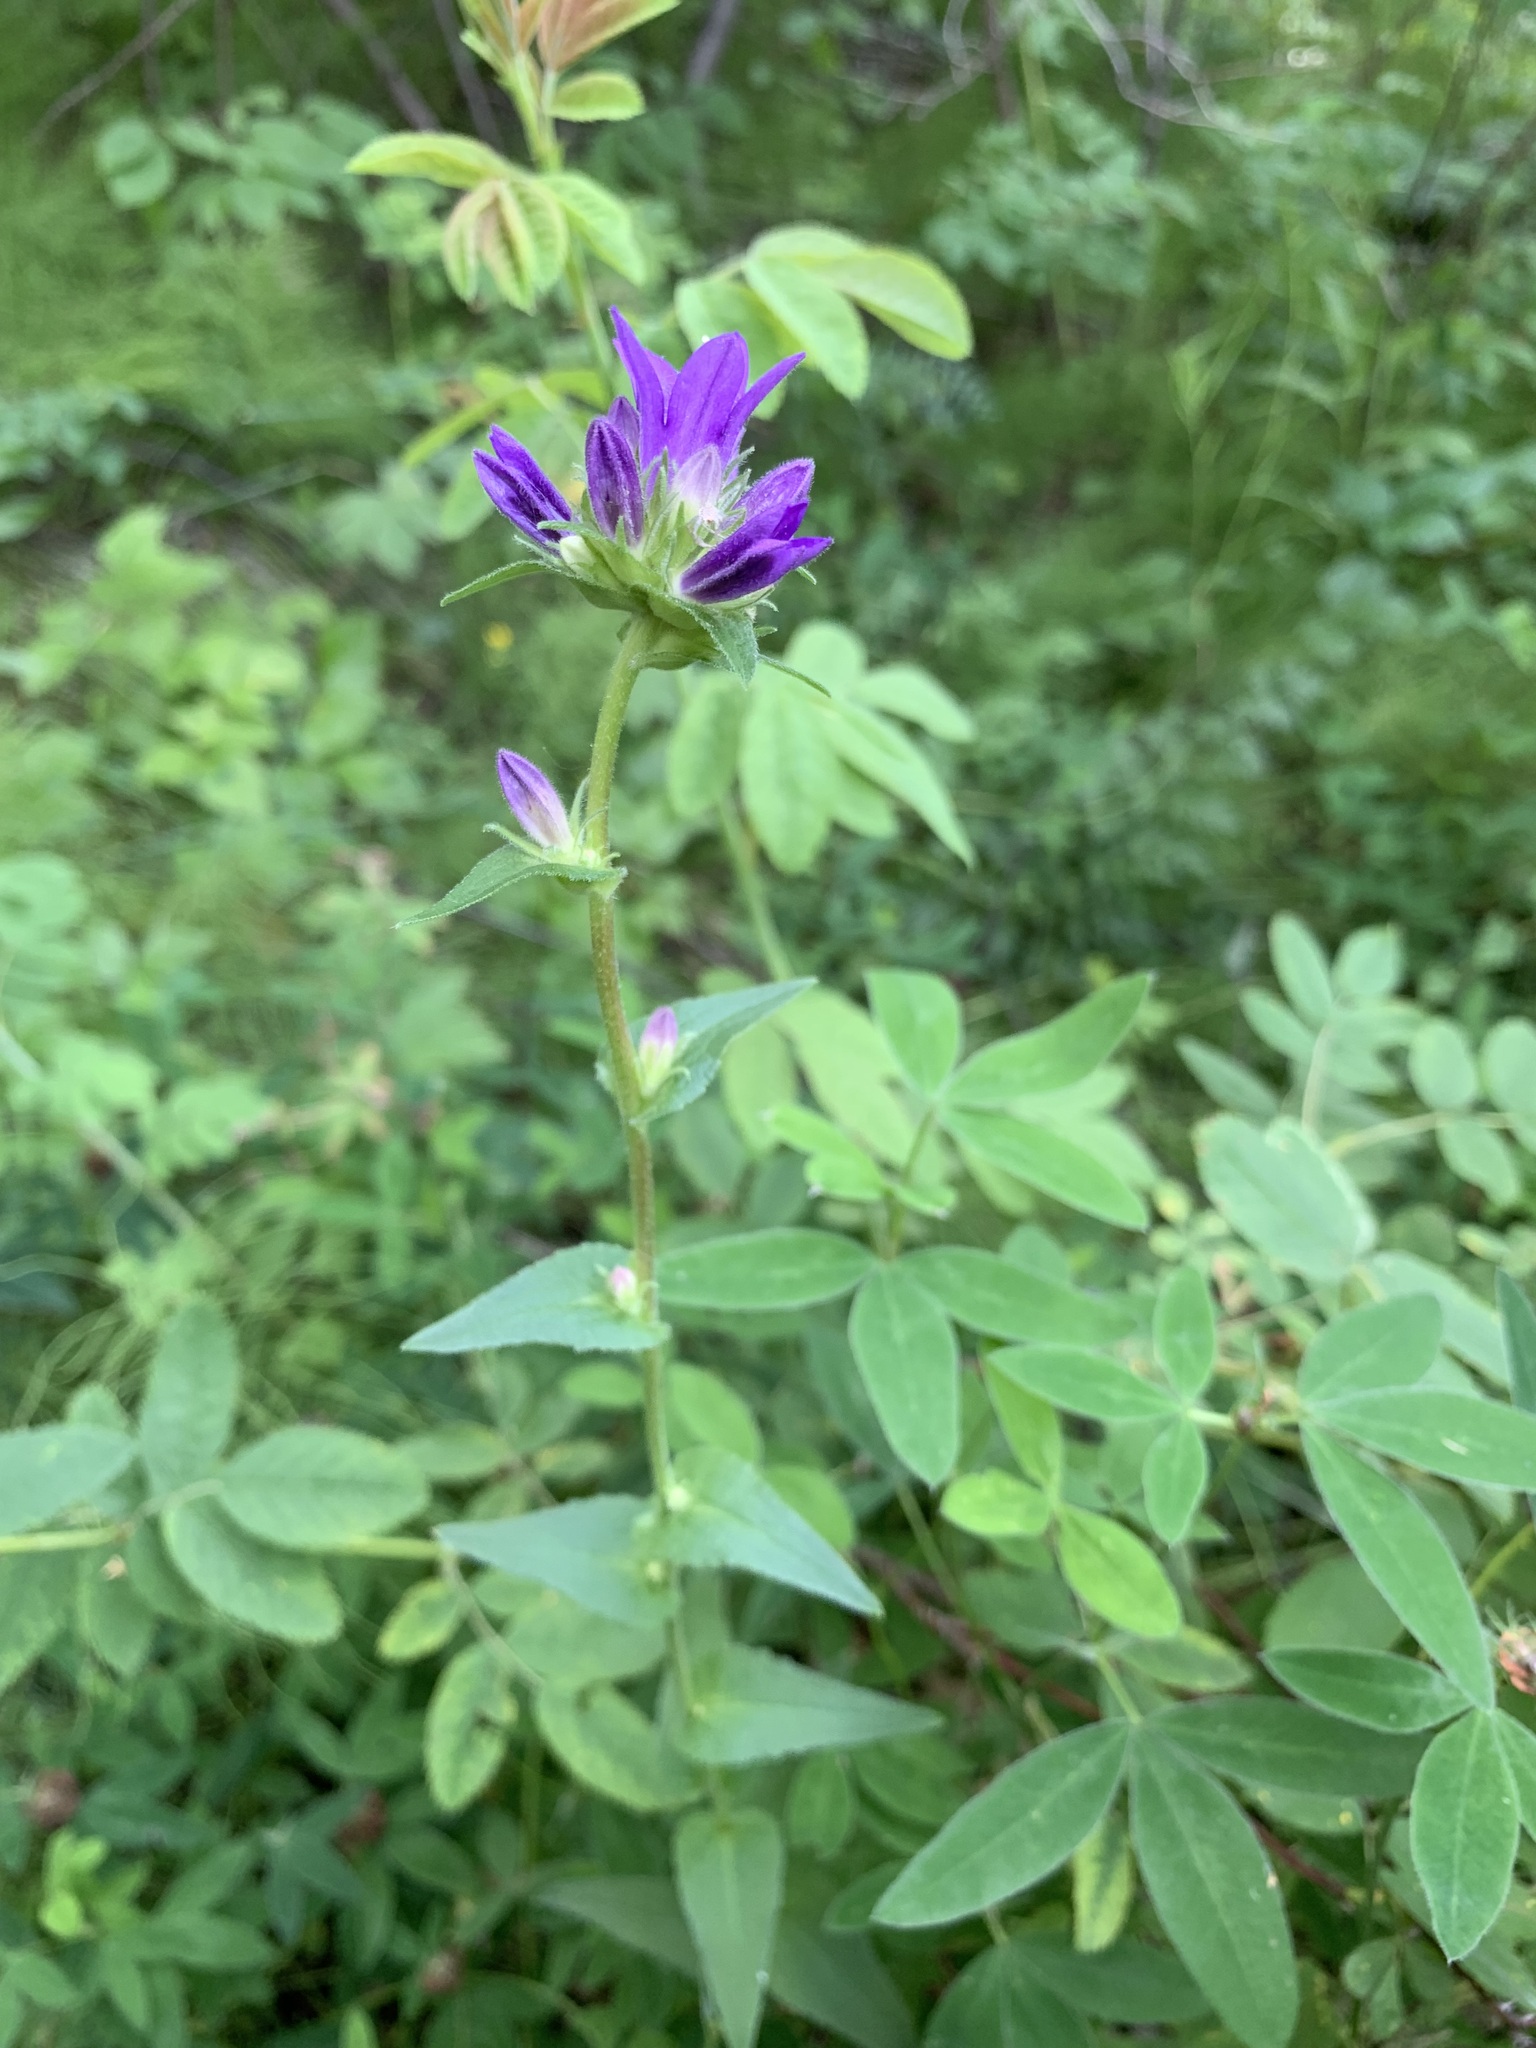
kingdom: Plantae
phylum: Tracheophyta
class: Magnoliopsida
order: Asterales
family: Campanulaceae
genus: Campanula
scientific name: Campanula glomerata
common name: Clustered bellflower
